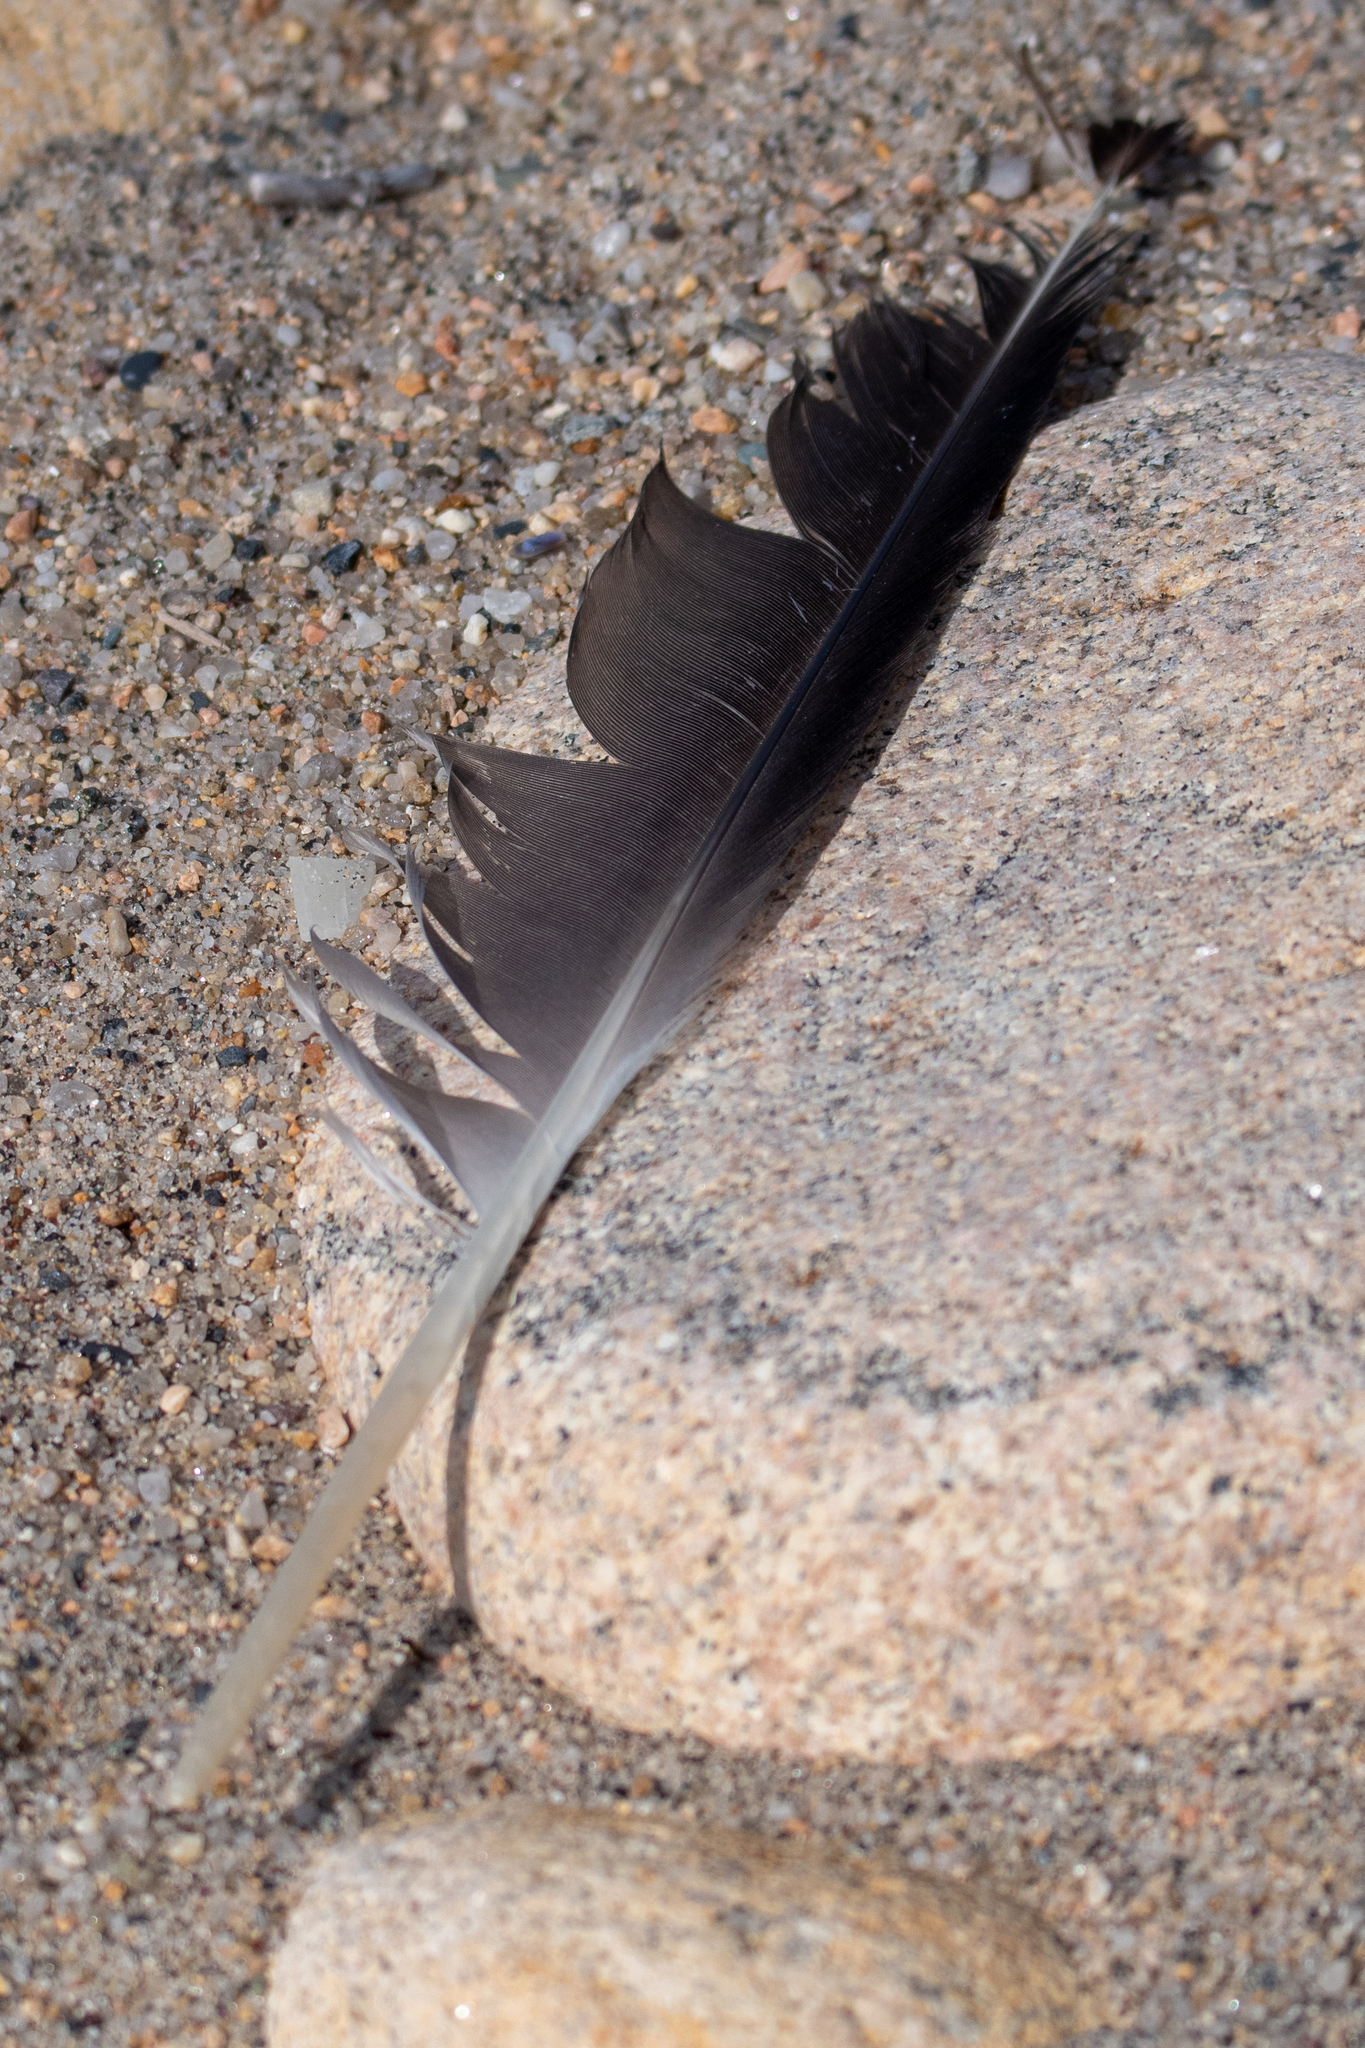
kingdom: Animalia
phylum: Chordata
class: Aves
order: Charadriiformes
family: Laridae
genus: Larus
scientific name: Larus marinus
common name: Great black-backed gull
